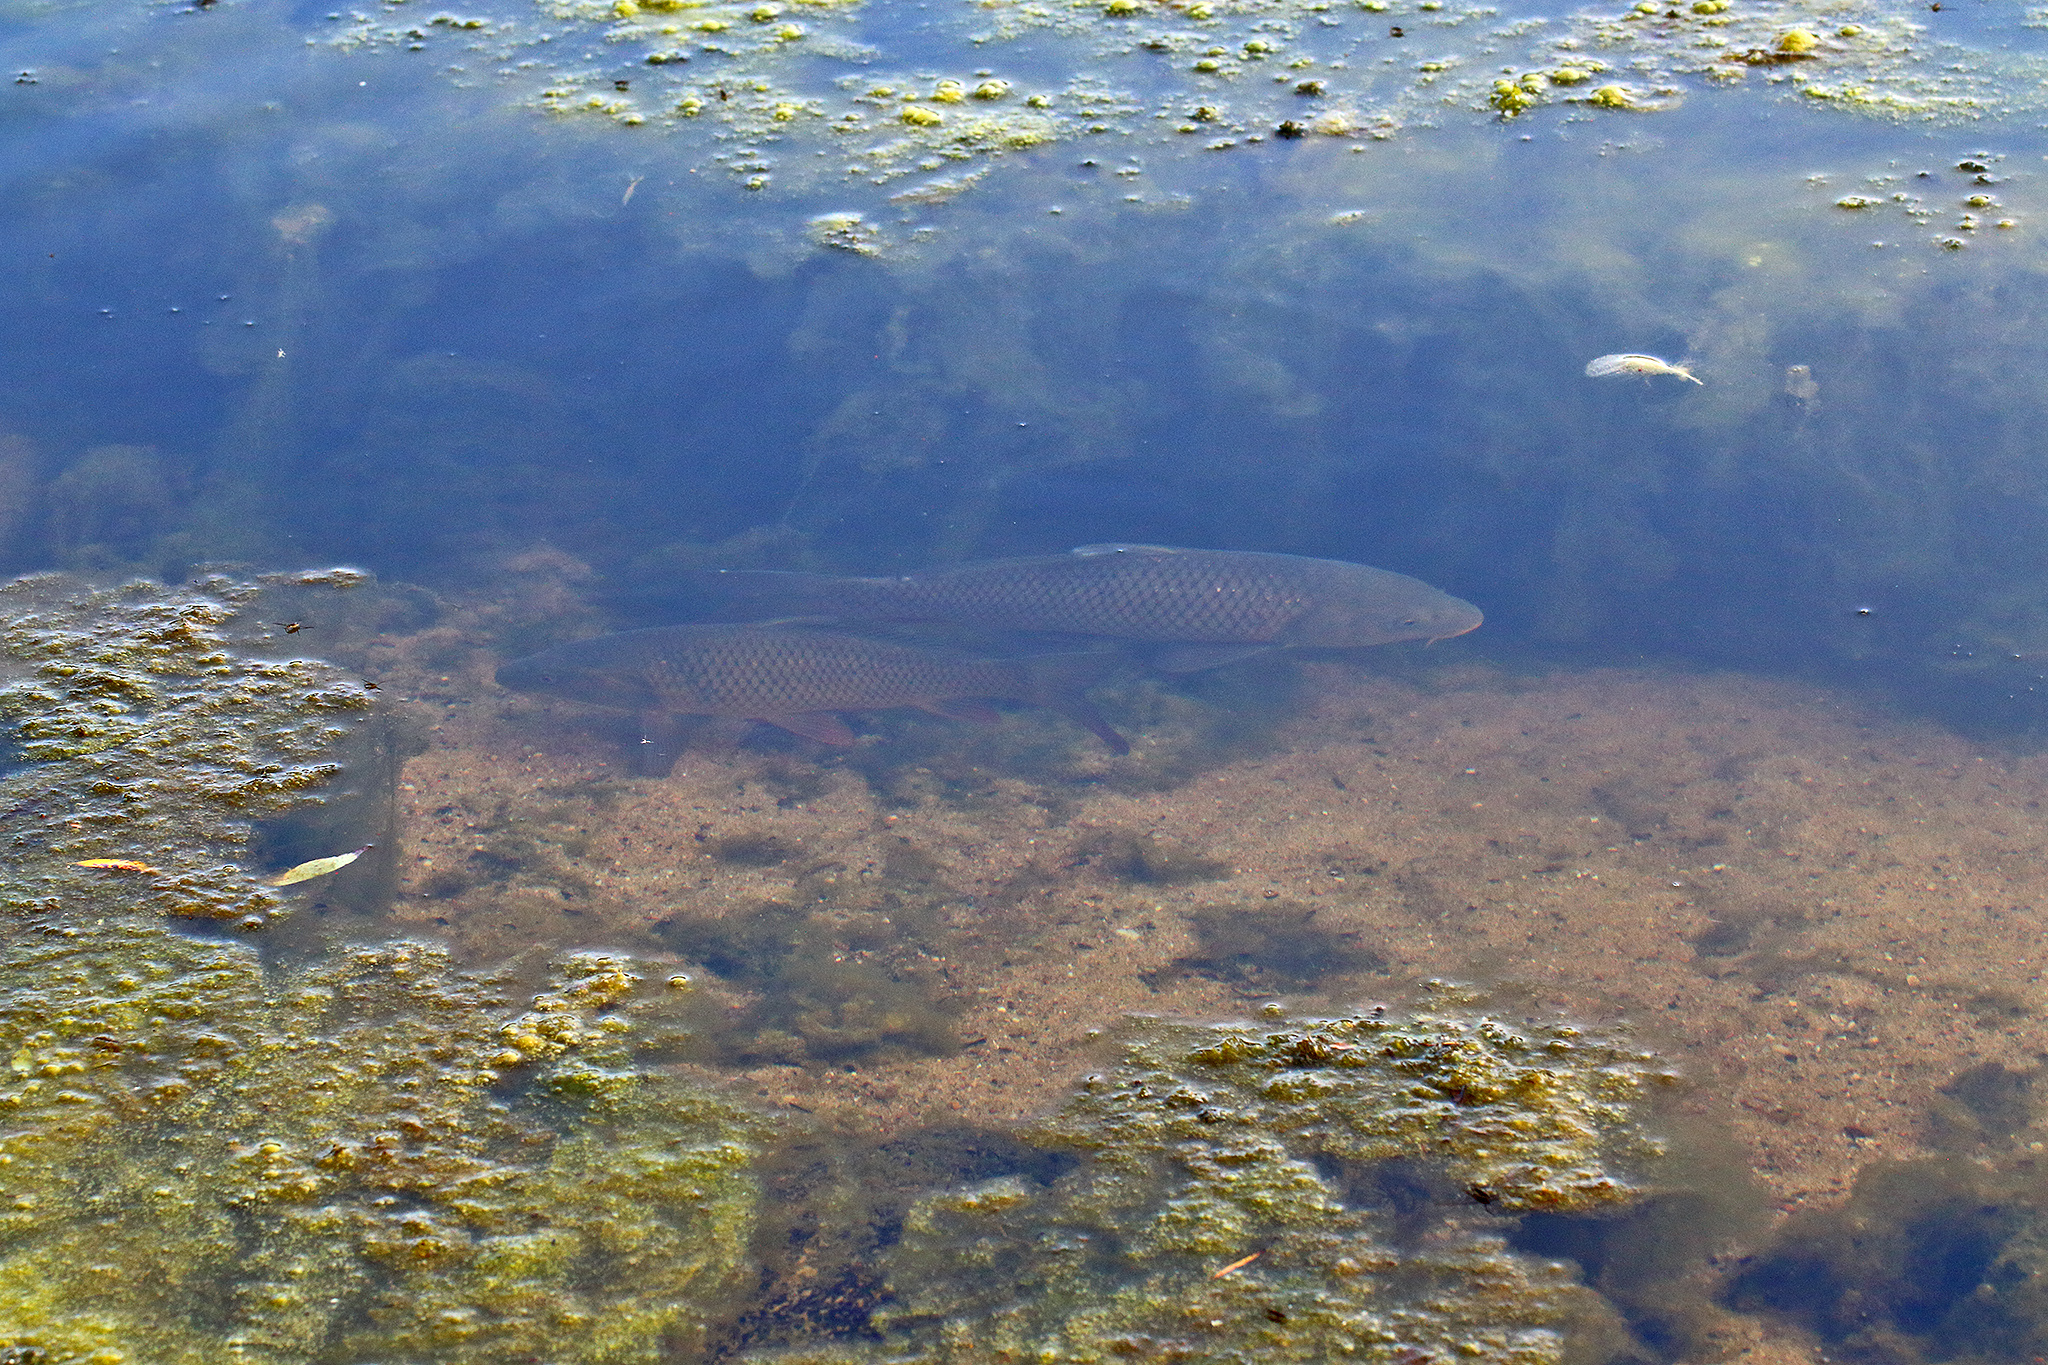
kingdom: Animalia
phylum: Chordata
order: Cypriniformes
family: Cyprinidae
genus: Cyprinus
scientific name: Cyprinus carpio
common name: Common carp
